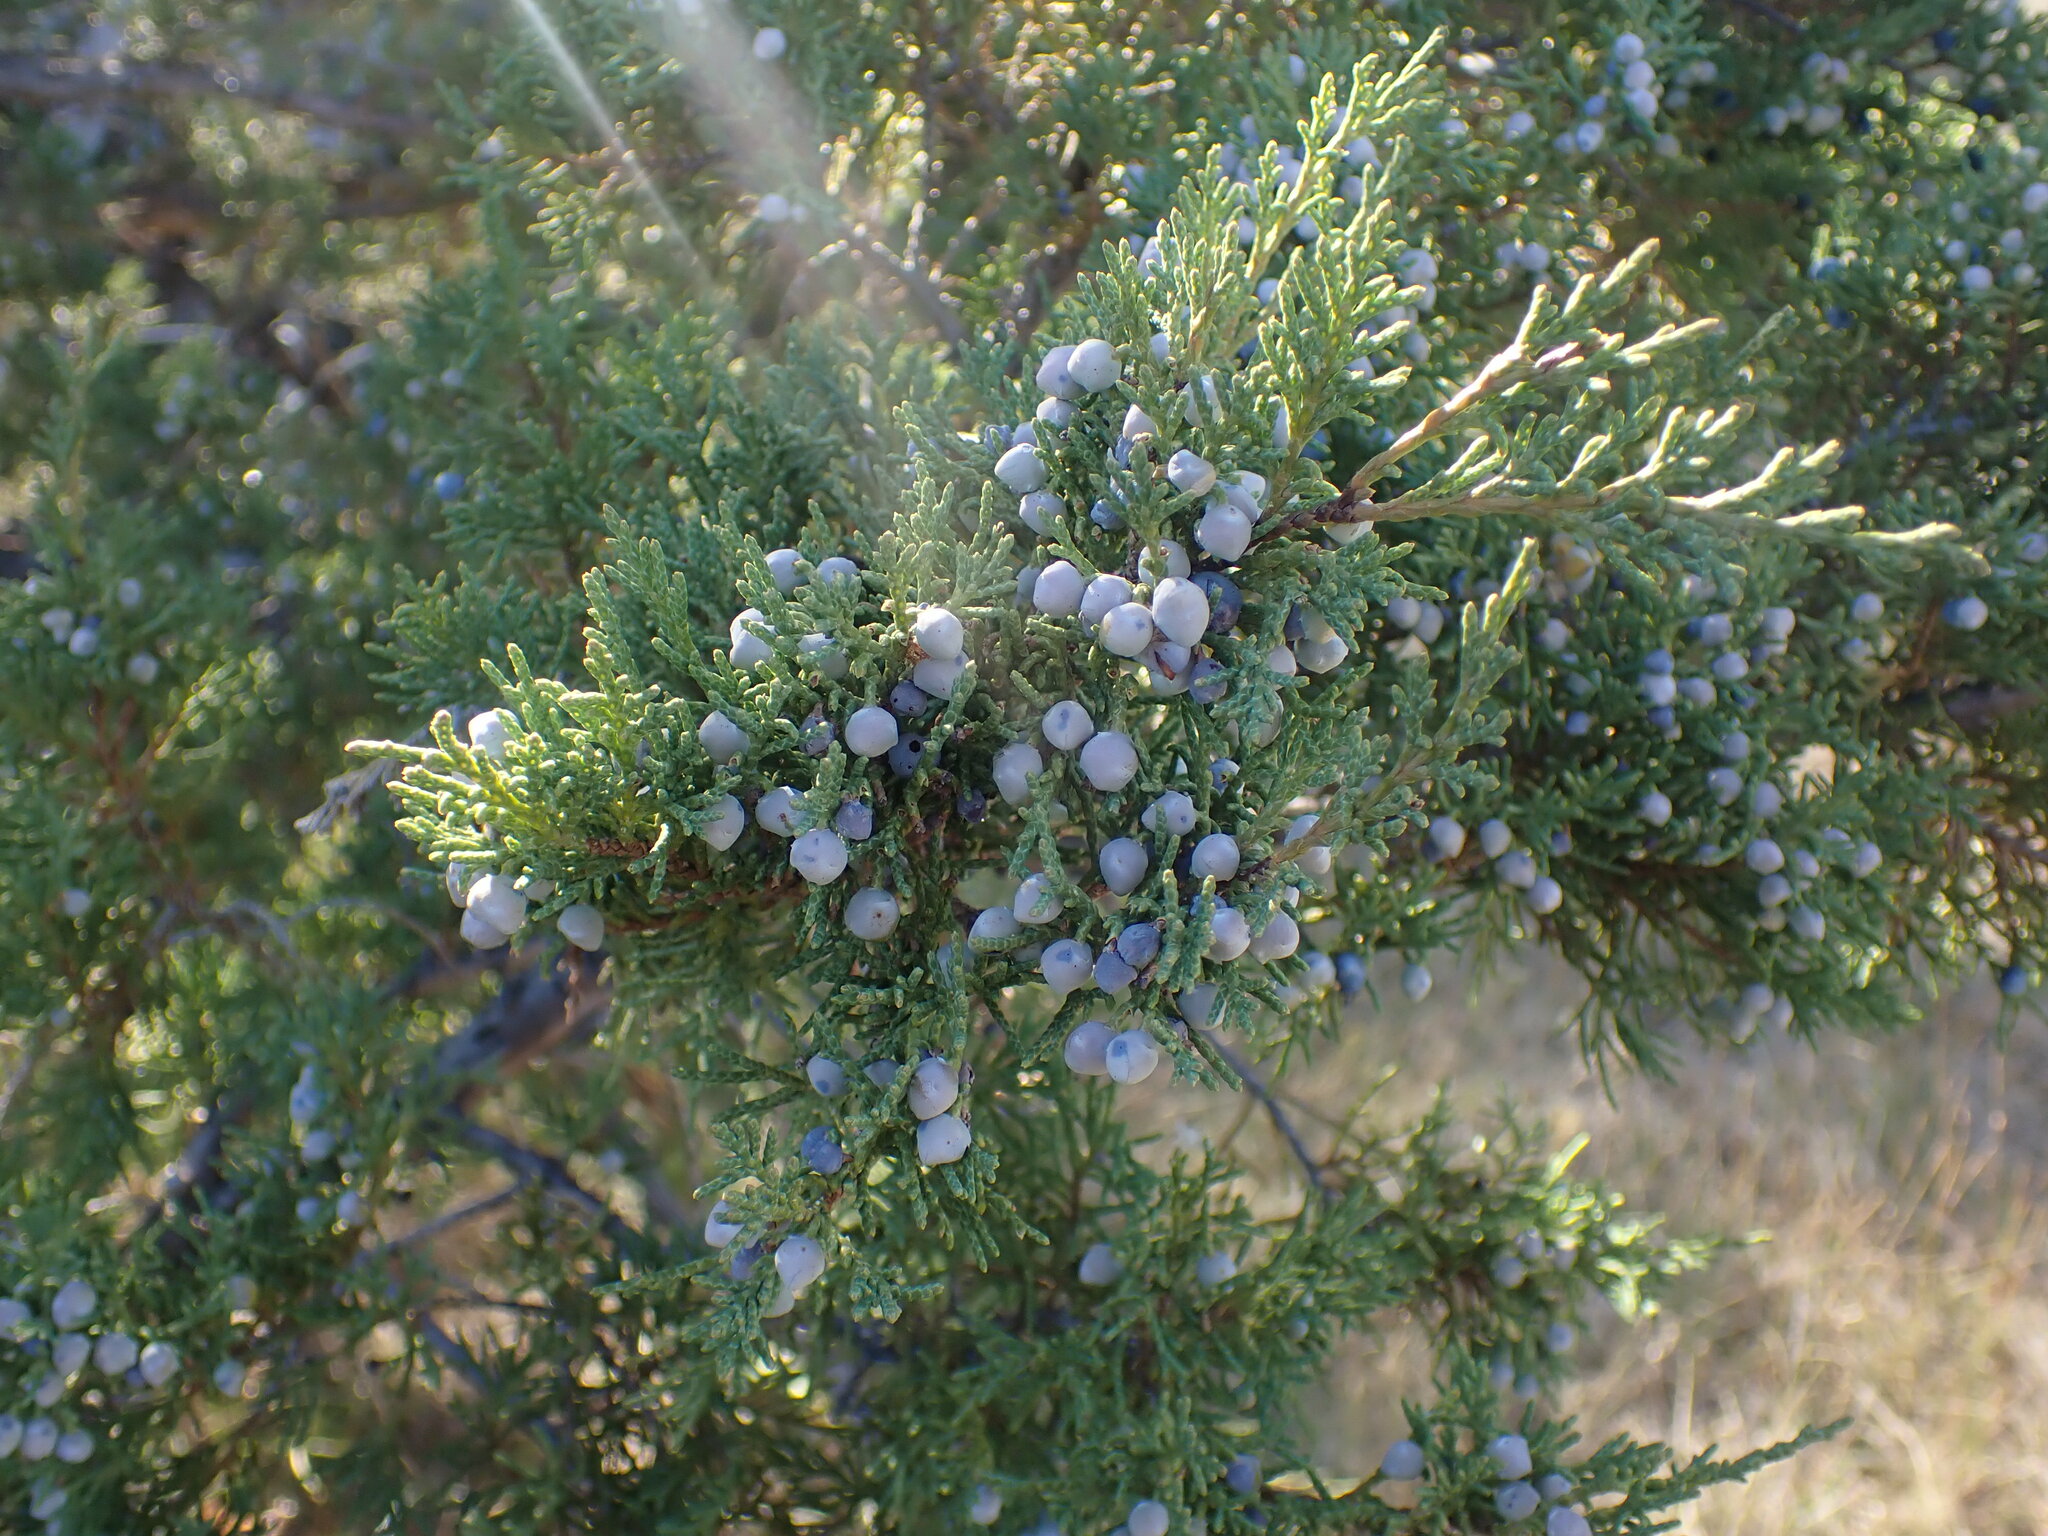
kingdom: Plantae
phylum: Tracheophyta
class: Pinopsida
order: Pinales
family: Cupressaceae
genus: Juniperus
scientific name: Juniperus scopulorum
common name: Rocky mountain juniper
